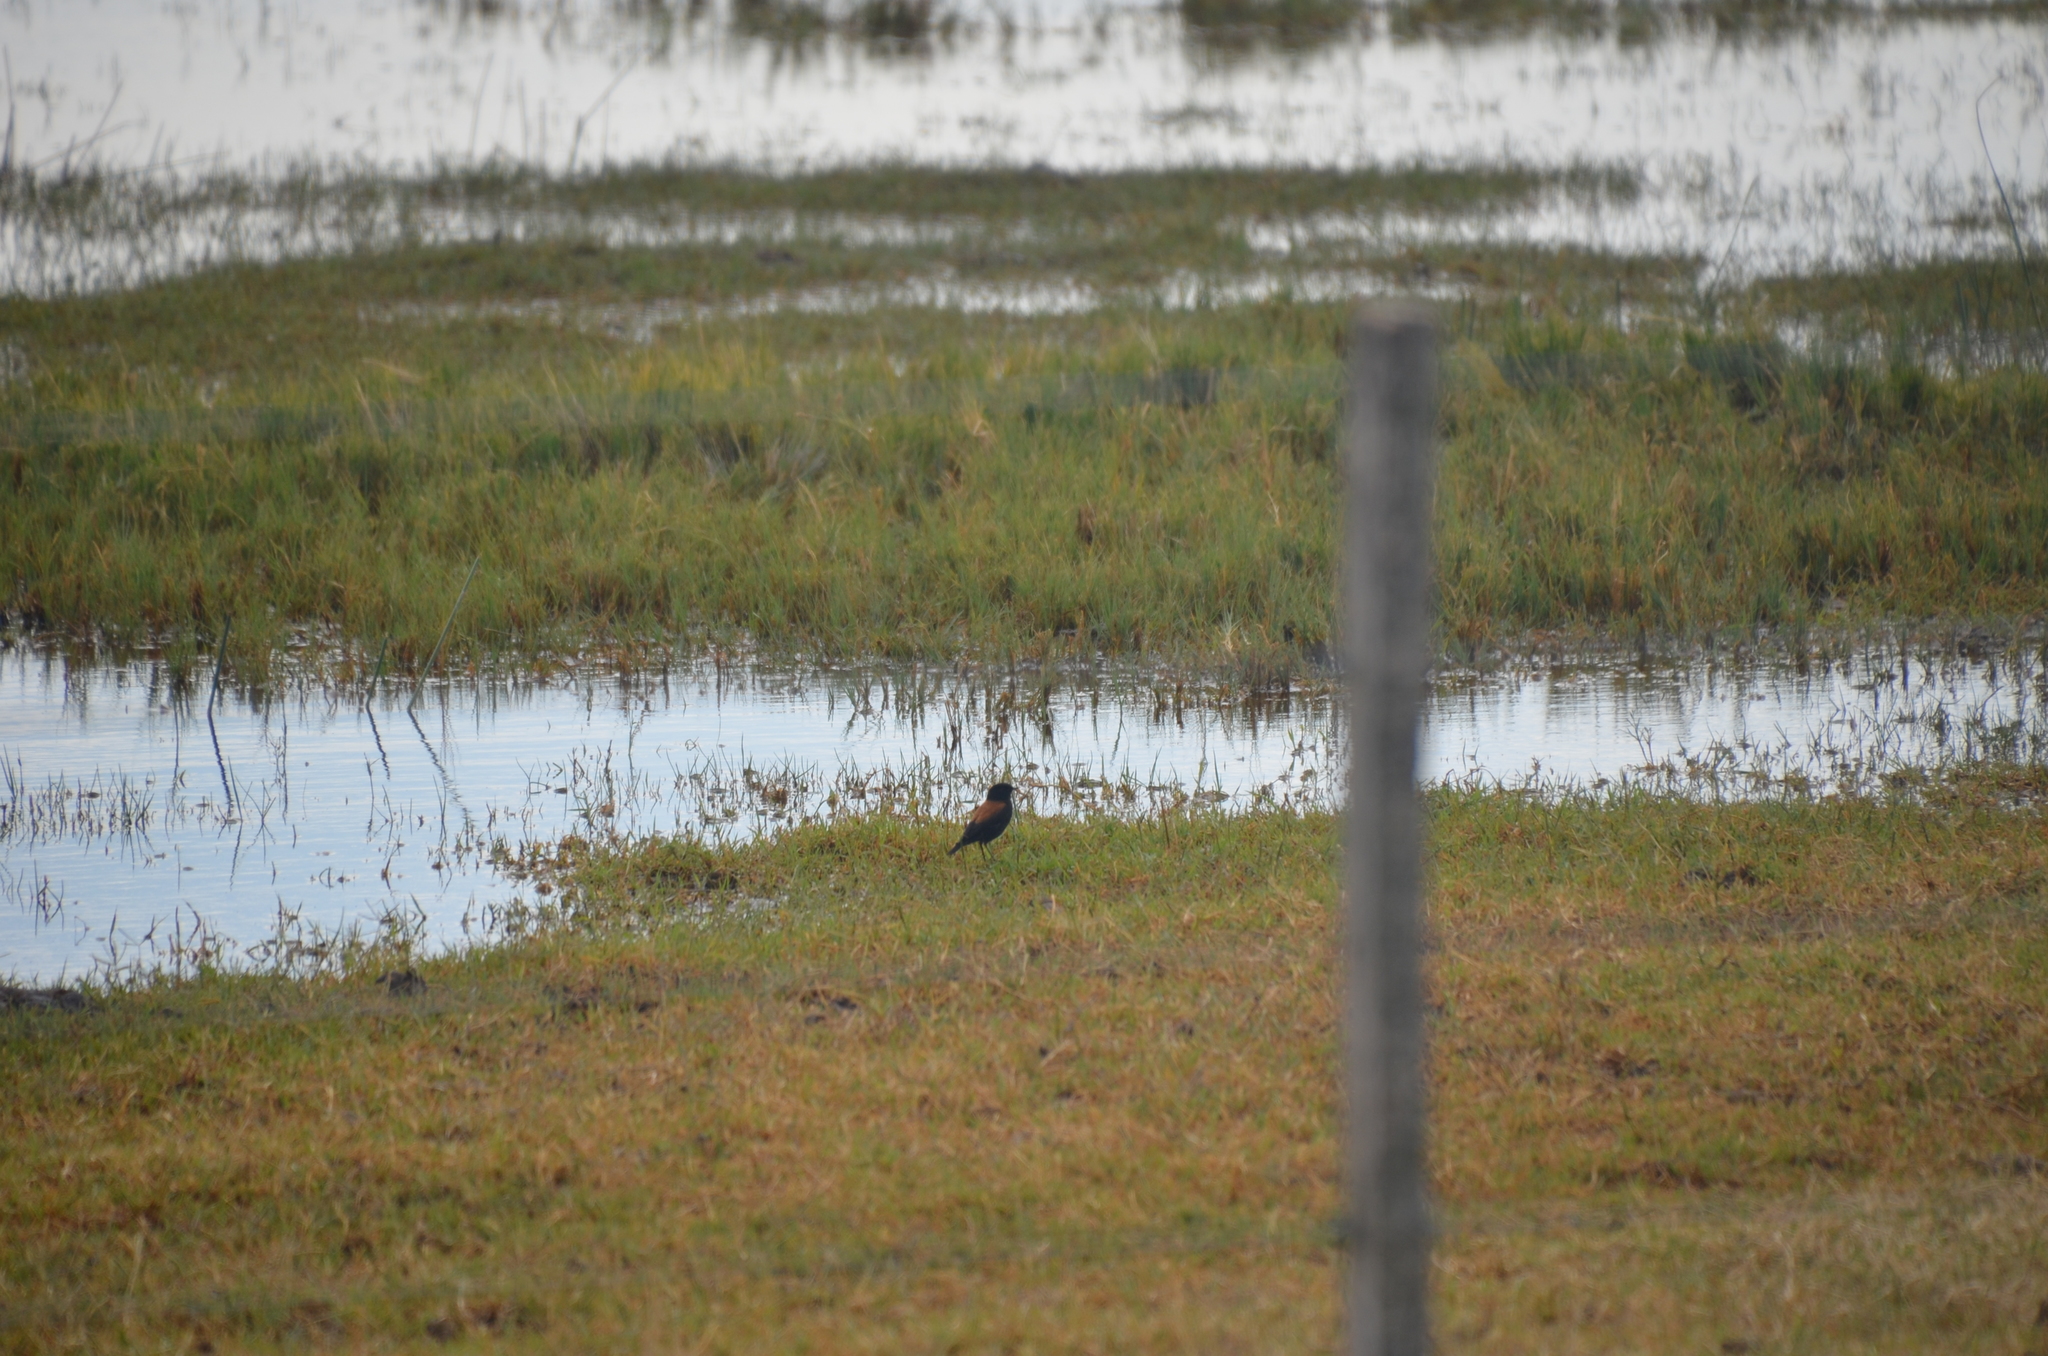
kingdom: Animalia
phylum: Chordata
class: Aves
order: Passeriformes
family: Tyrannidae
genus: Lessonia
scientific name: Lessonia rufa
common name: Austral negrito
